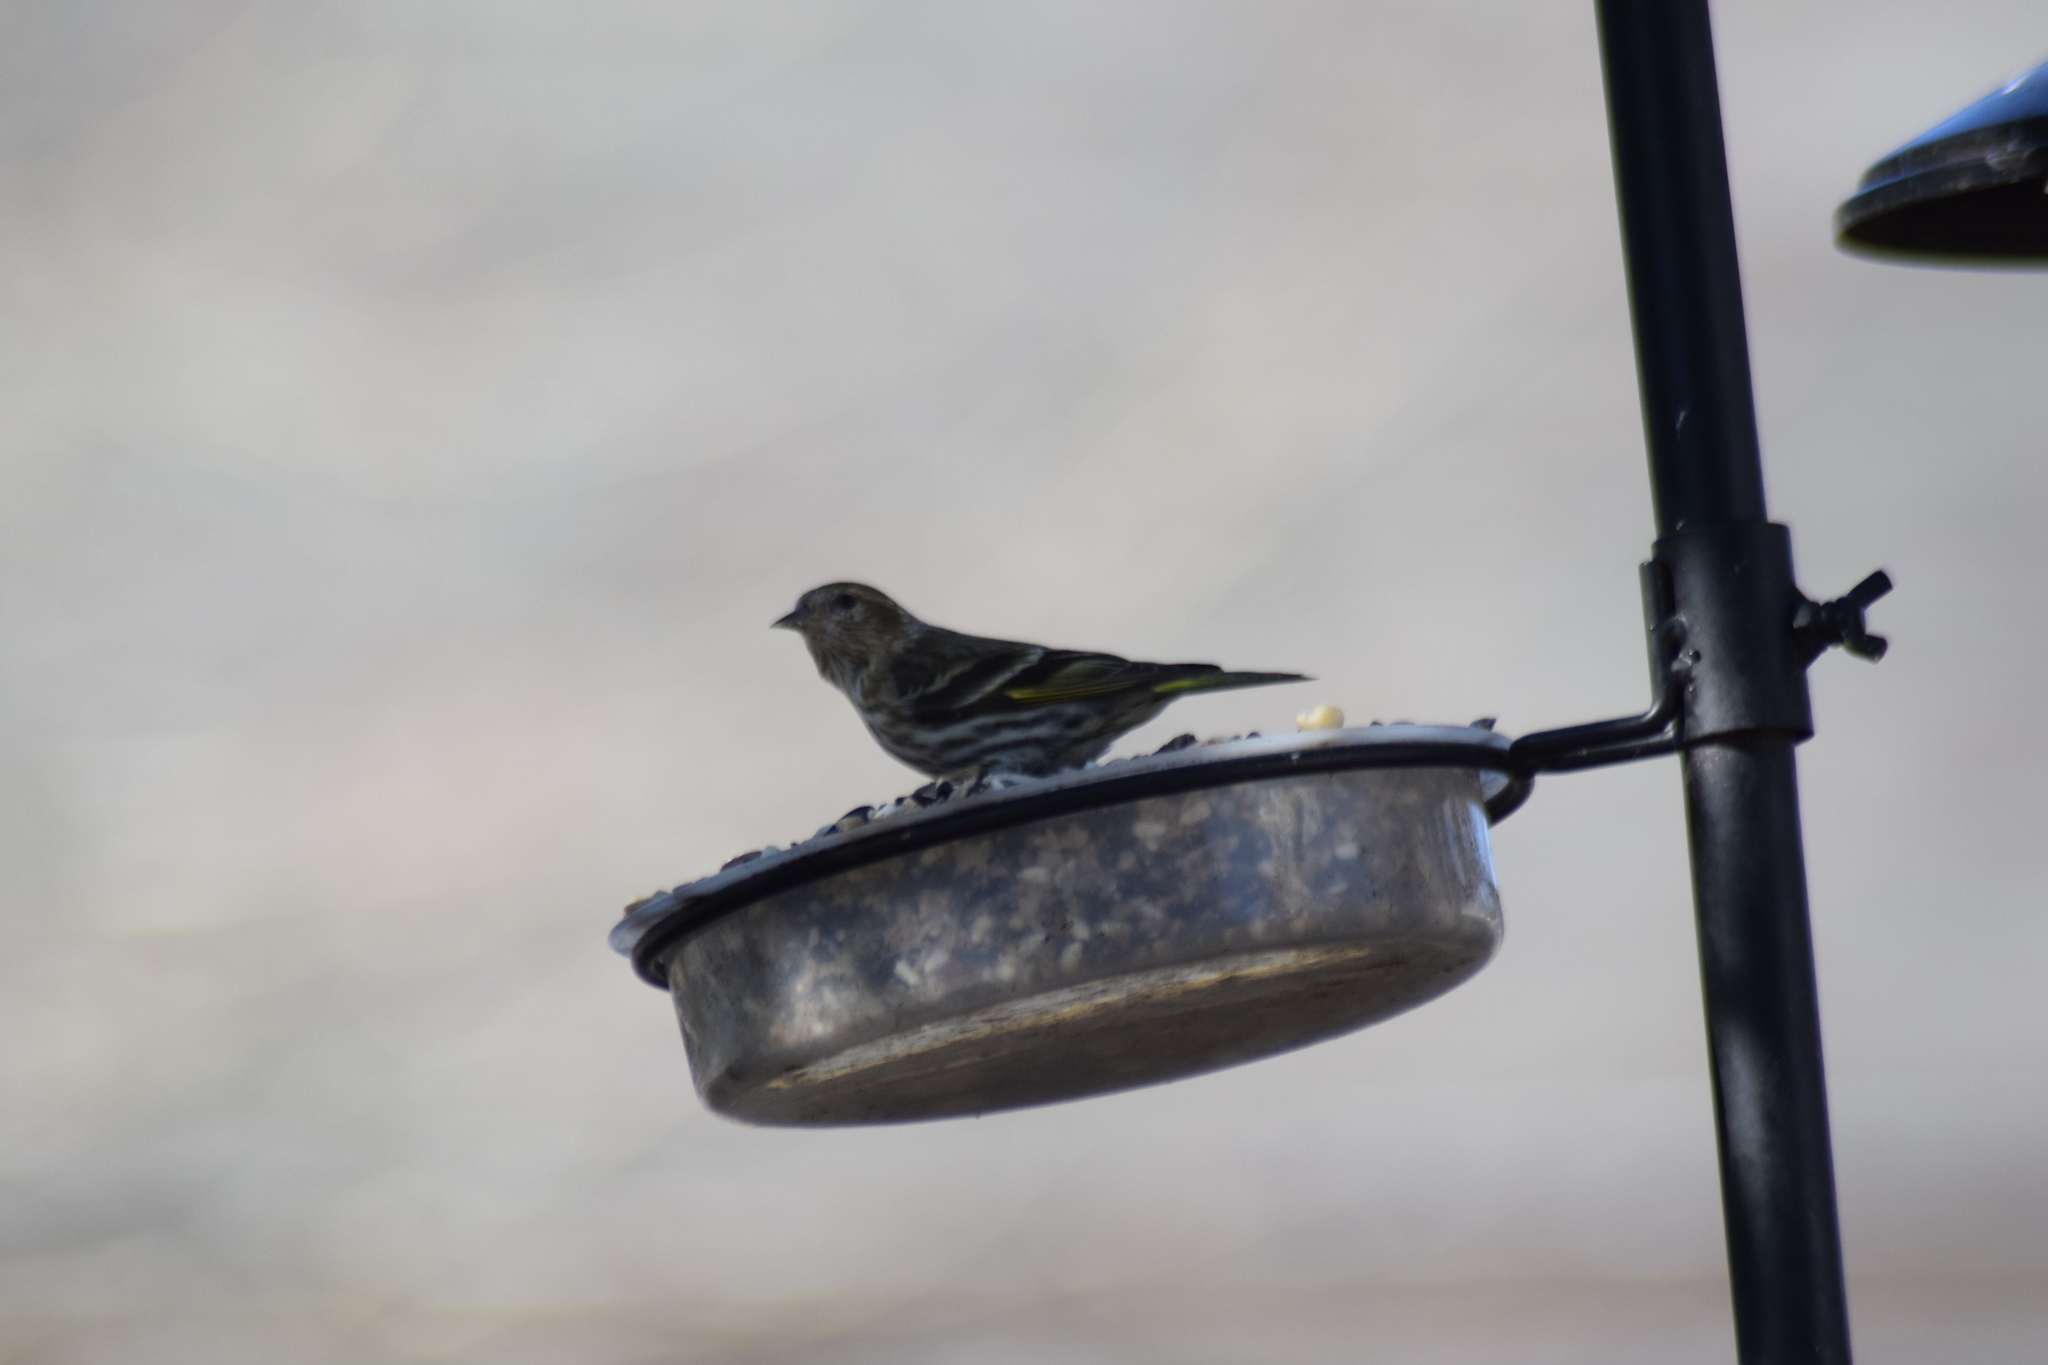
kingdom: Animalia
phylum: Chordata
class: Aves
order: Passeriformes
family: Fringillidae
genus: Spinus
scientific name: Spinus pinus
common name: Pine siskin
